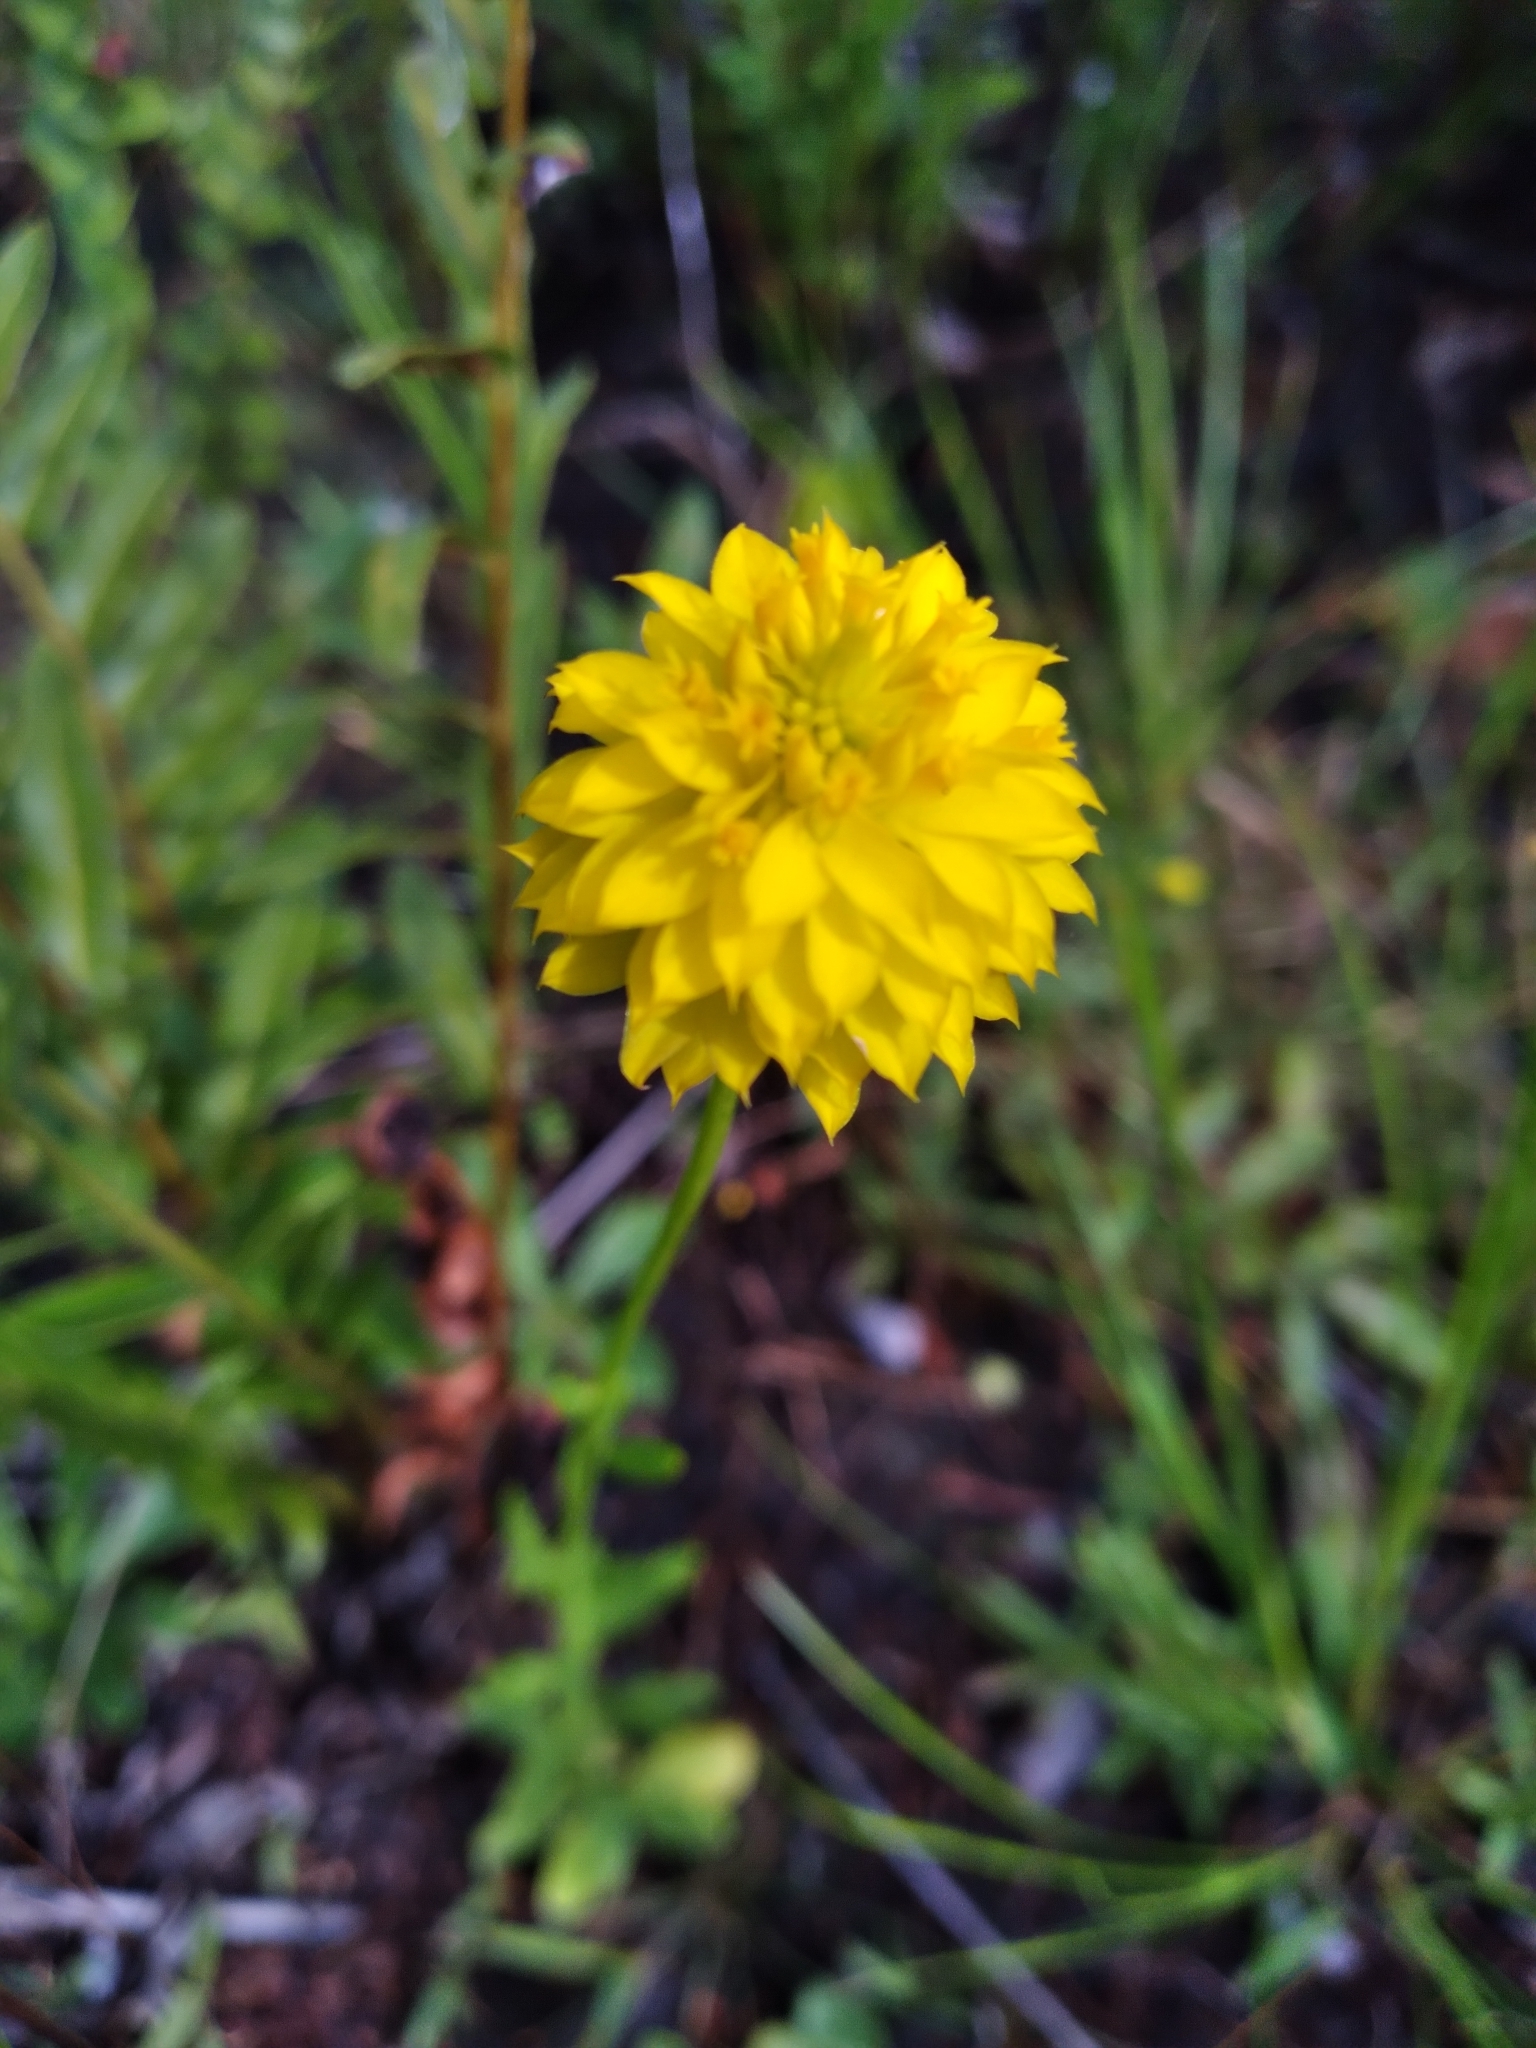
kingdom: Plantae
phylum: Tracheophyta
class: Magnoliopsida
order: Fabales
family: Polygalaceae
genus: Polygala
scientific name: Polygala rugelii
